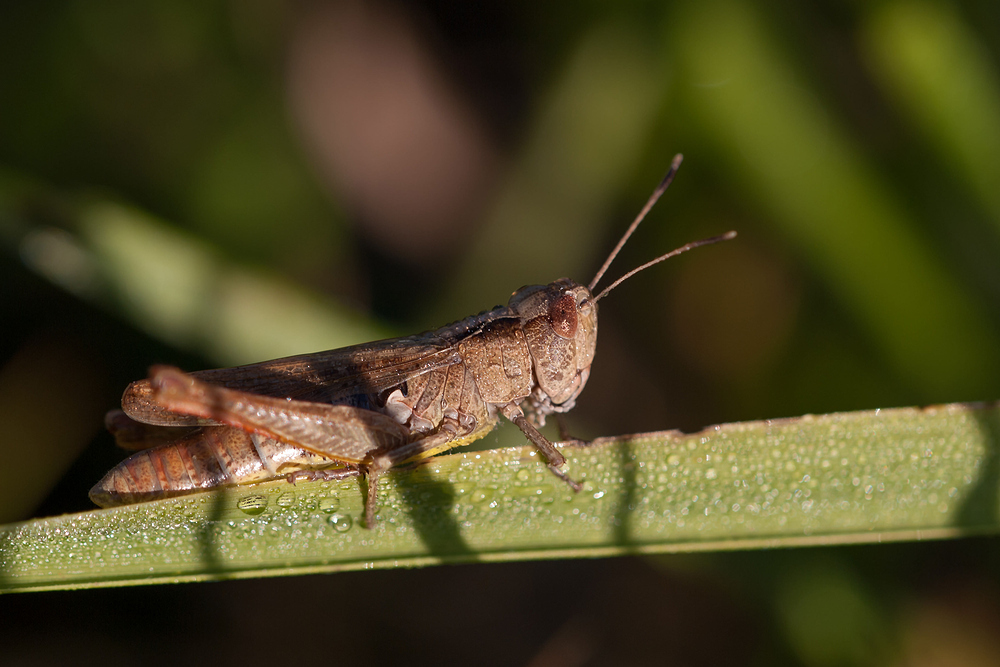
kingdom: Animalia
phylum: Arthropoda
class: Insecta
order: Orthoptera
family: Acrididae
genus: Gomphocerippus
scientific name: Gomphocerippus rufus
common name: Rufous grasshopper
